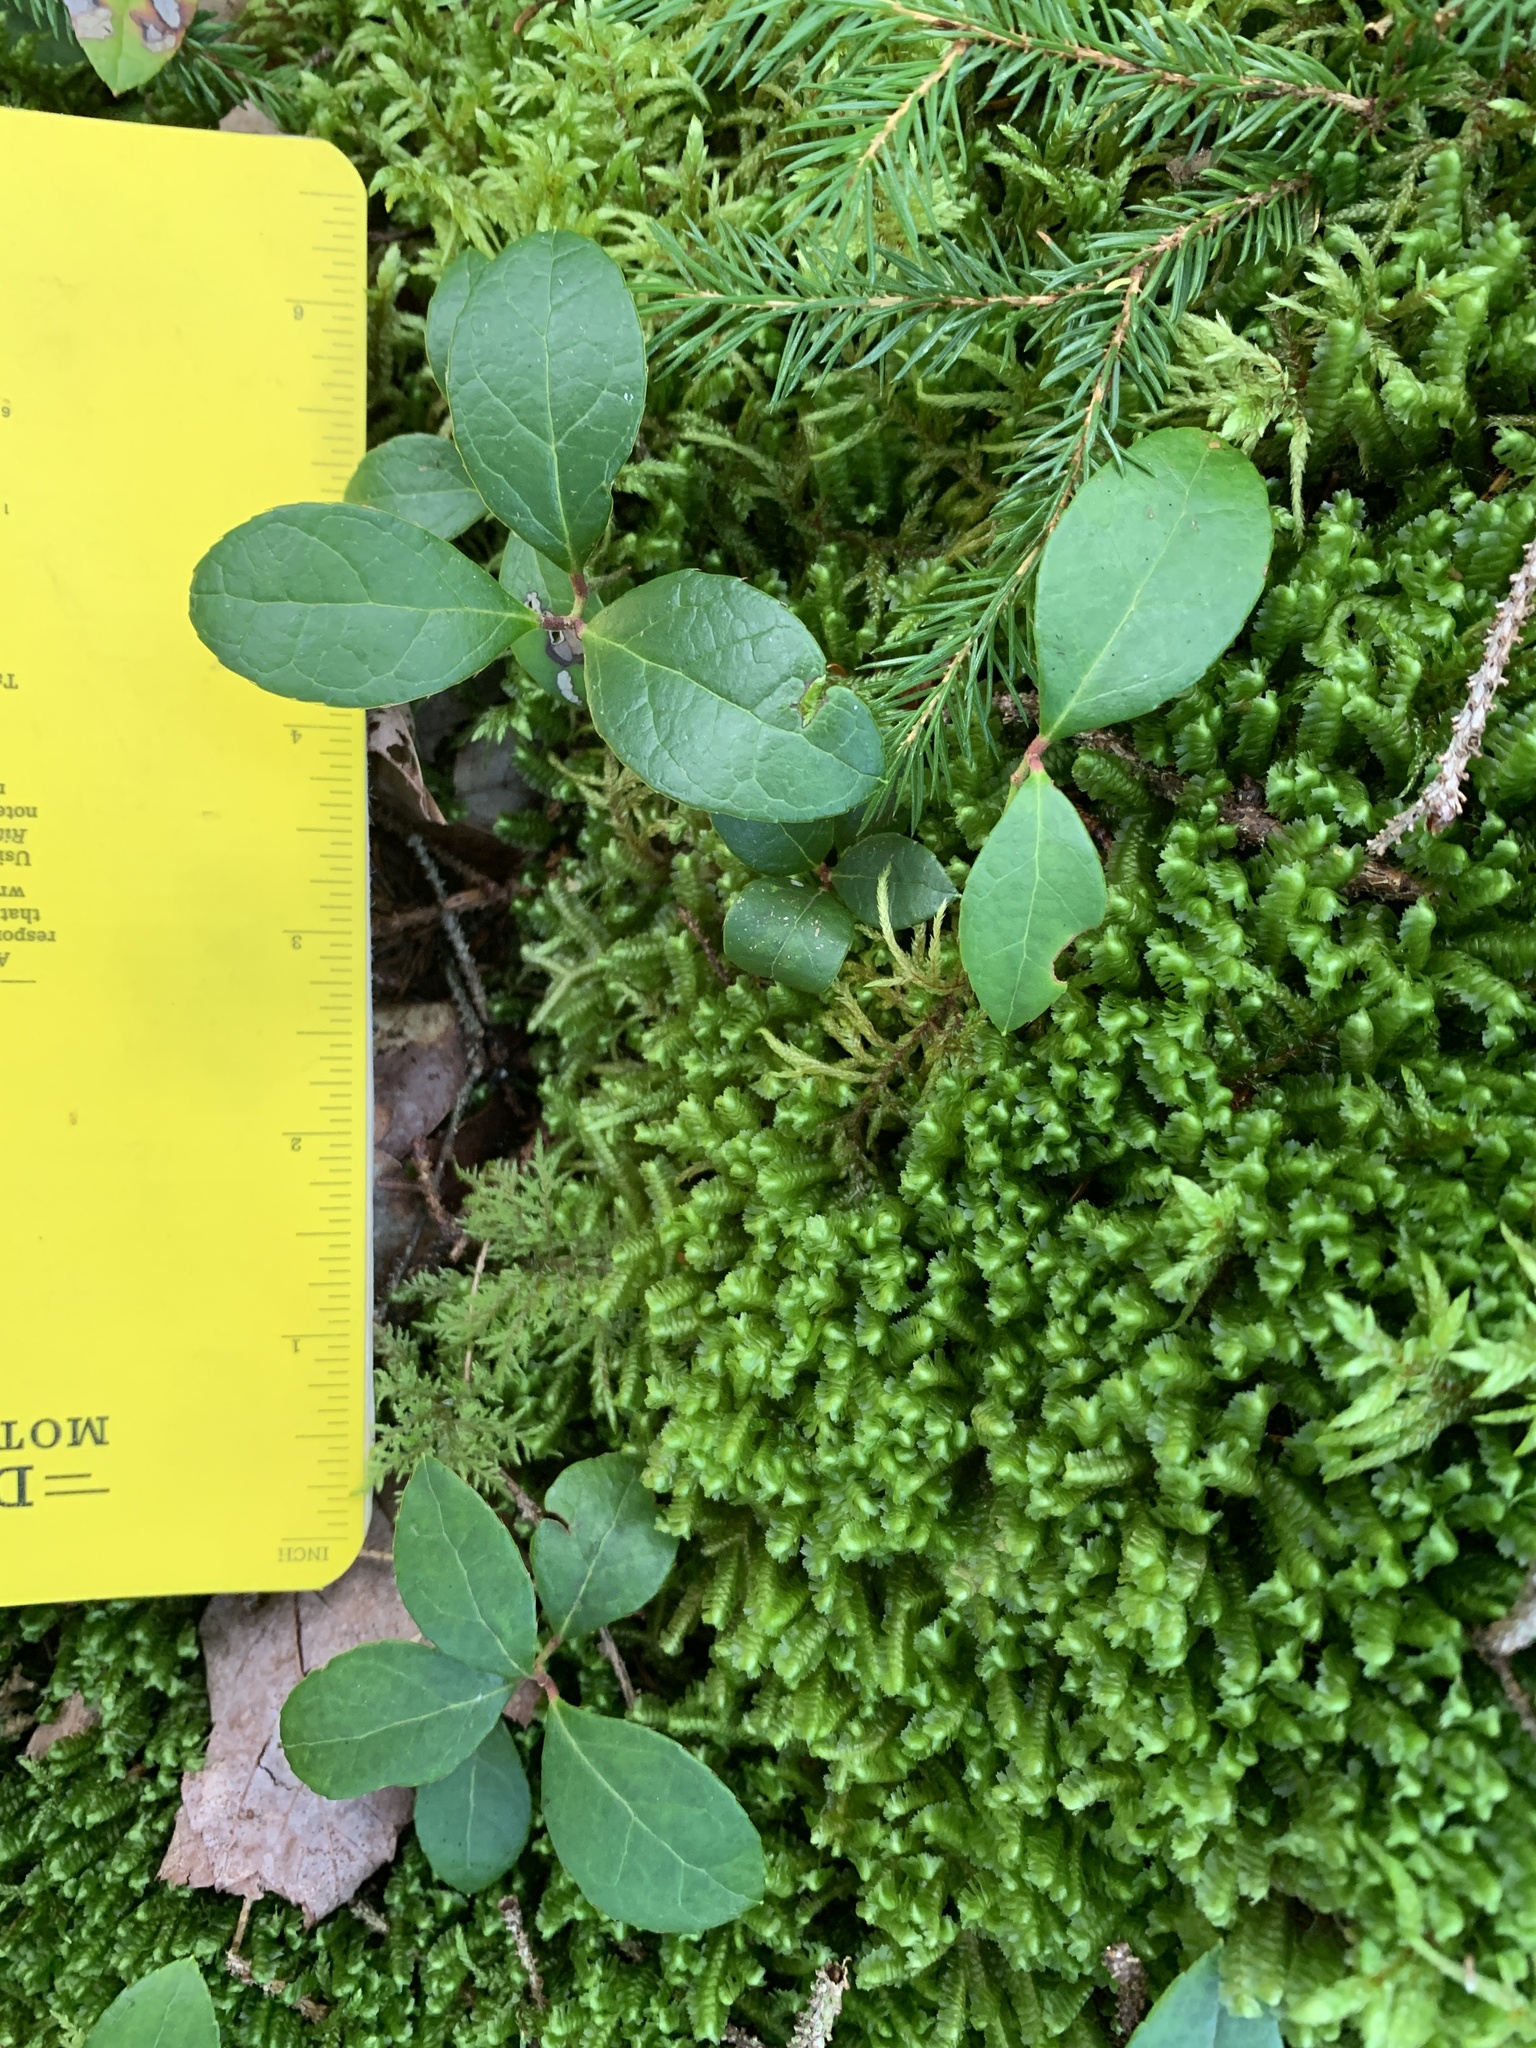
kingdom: Plantae
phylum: Tracheophyta
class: Magnoliopsida
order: Ericales
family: Ericaceae
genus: Gaultheria
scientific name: Gaultheria procumbens
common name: Checkerberry
